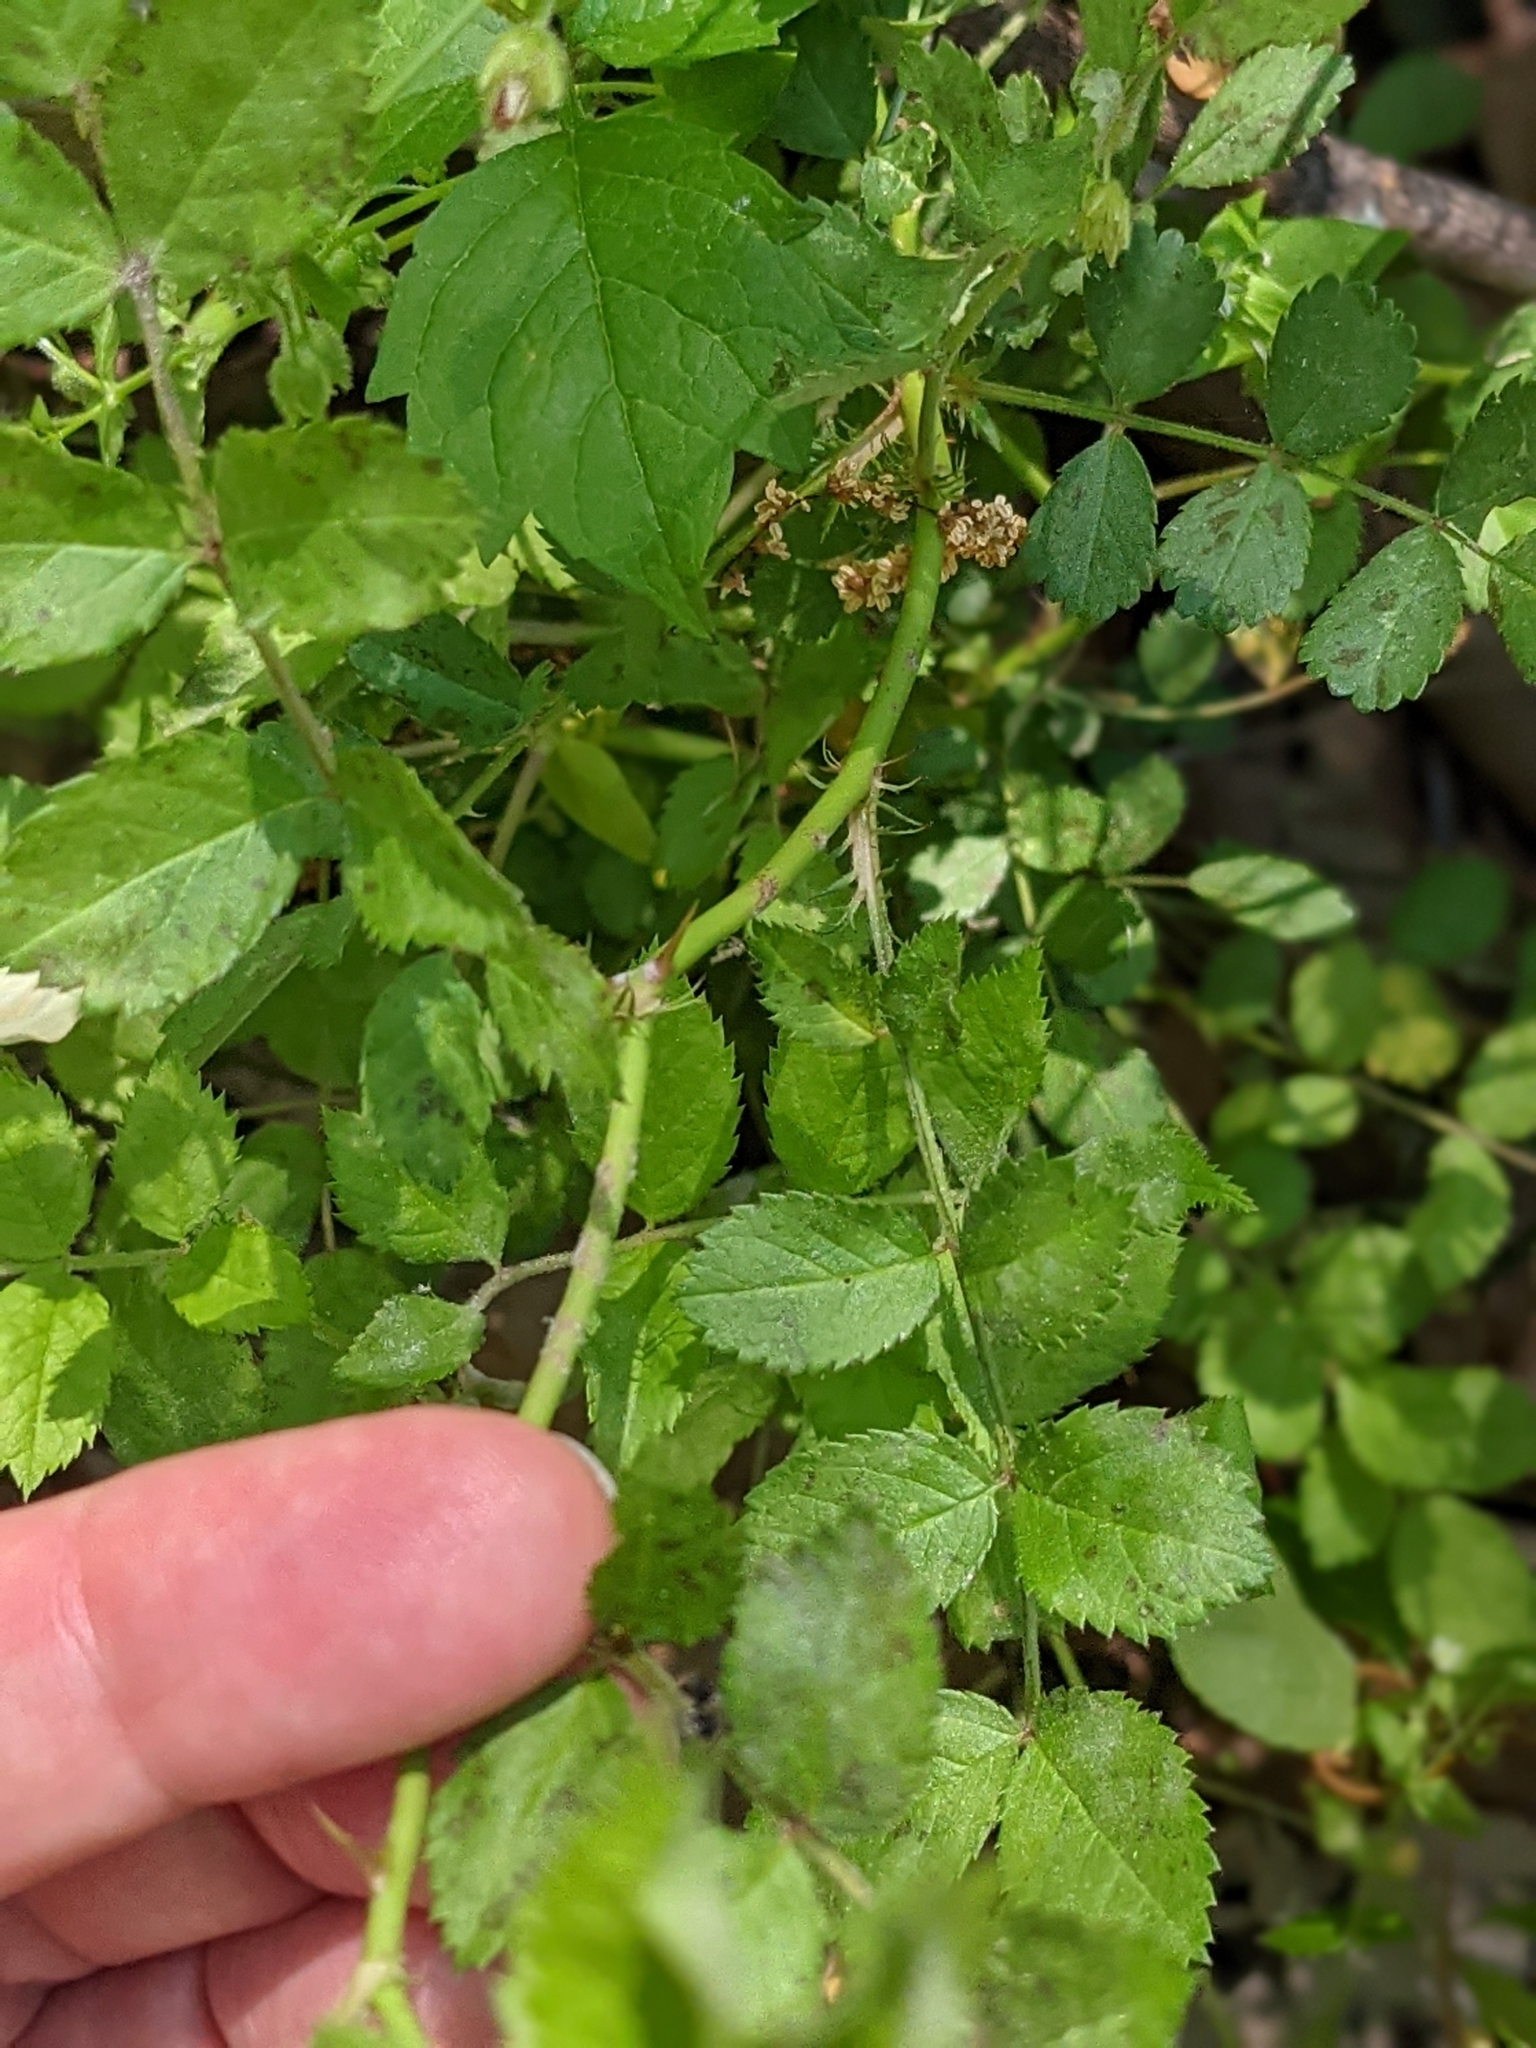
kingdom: Plantae
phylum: Tracheophyta
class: Magnoliopsida
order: Rosales
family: Rosaceae
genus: Rosa
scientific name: Rosa multiflora
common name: Multiflora rose
